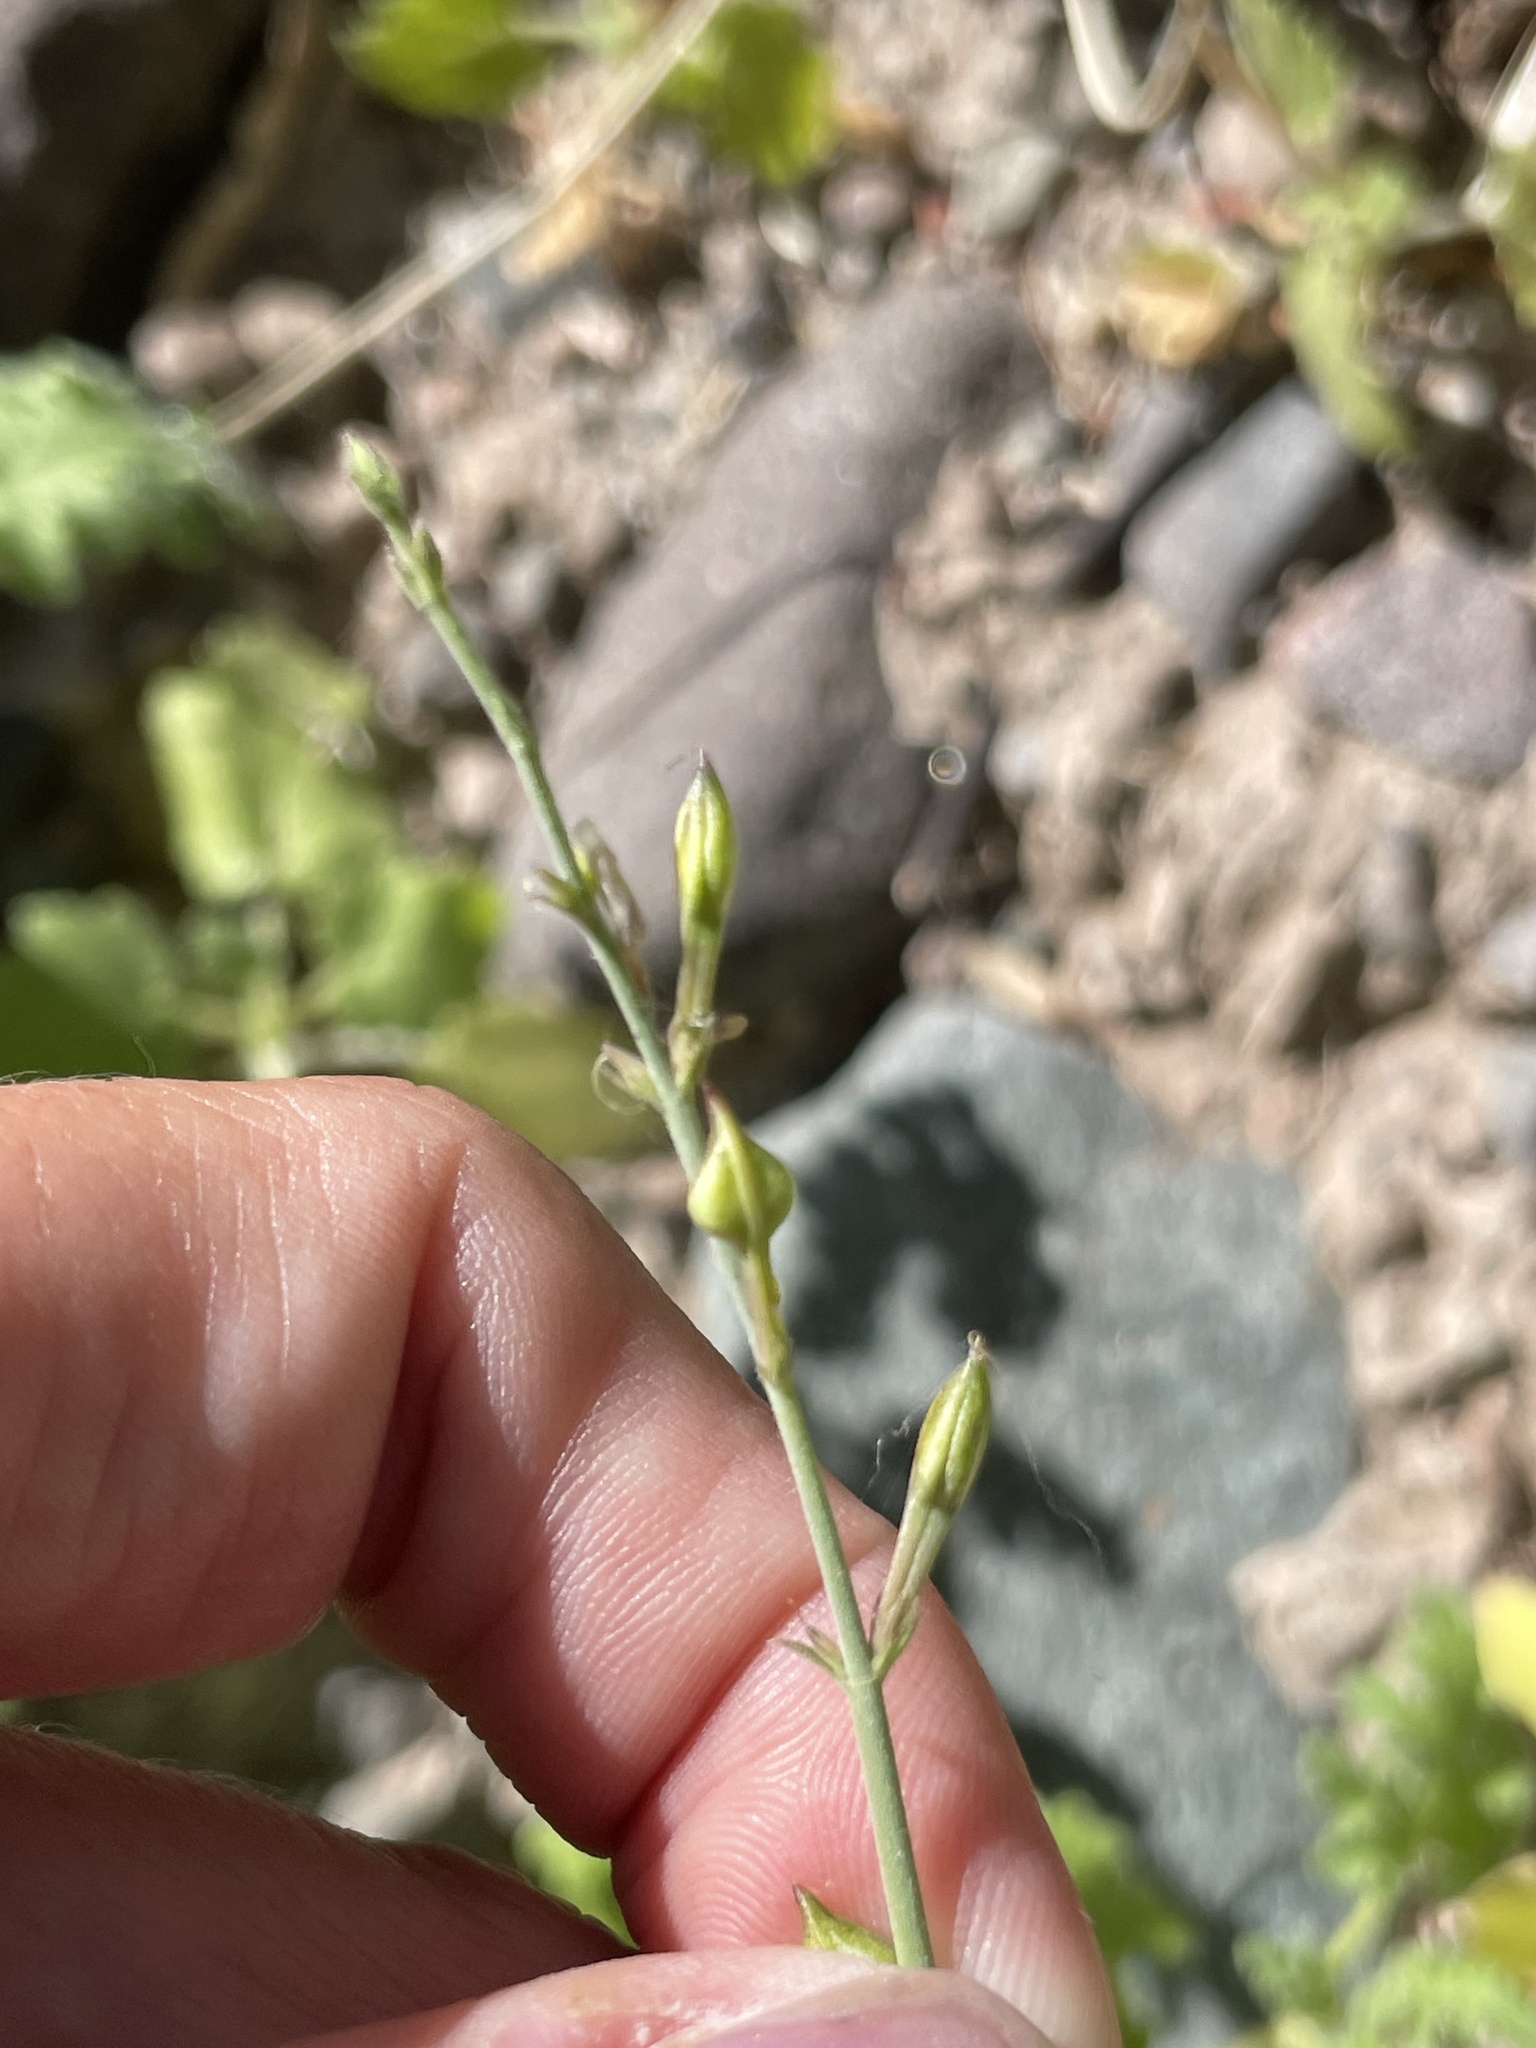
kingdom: Plantae
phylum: Tracheophyta
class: Magnoliopsida
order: Lamiales
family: Acanthaceae
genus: Carlowrightia
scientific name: Carlowrightia arizonica
